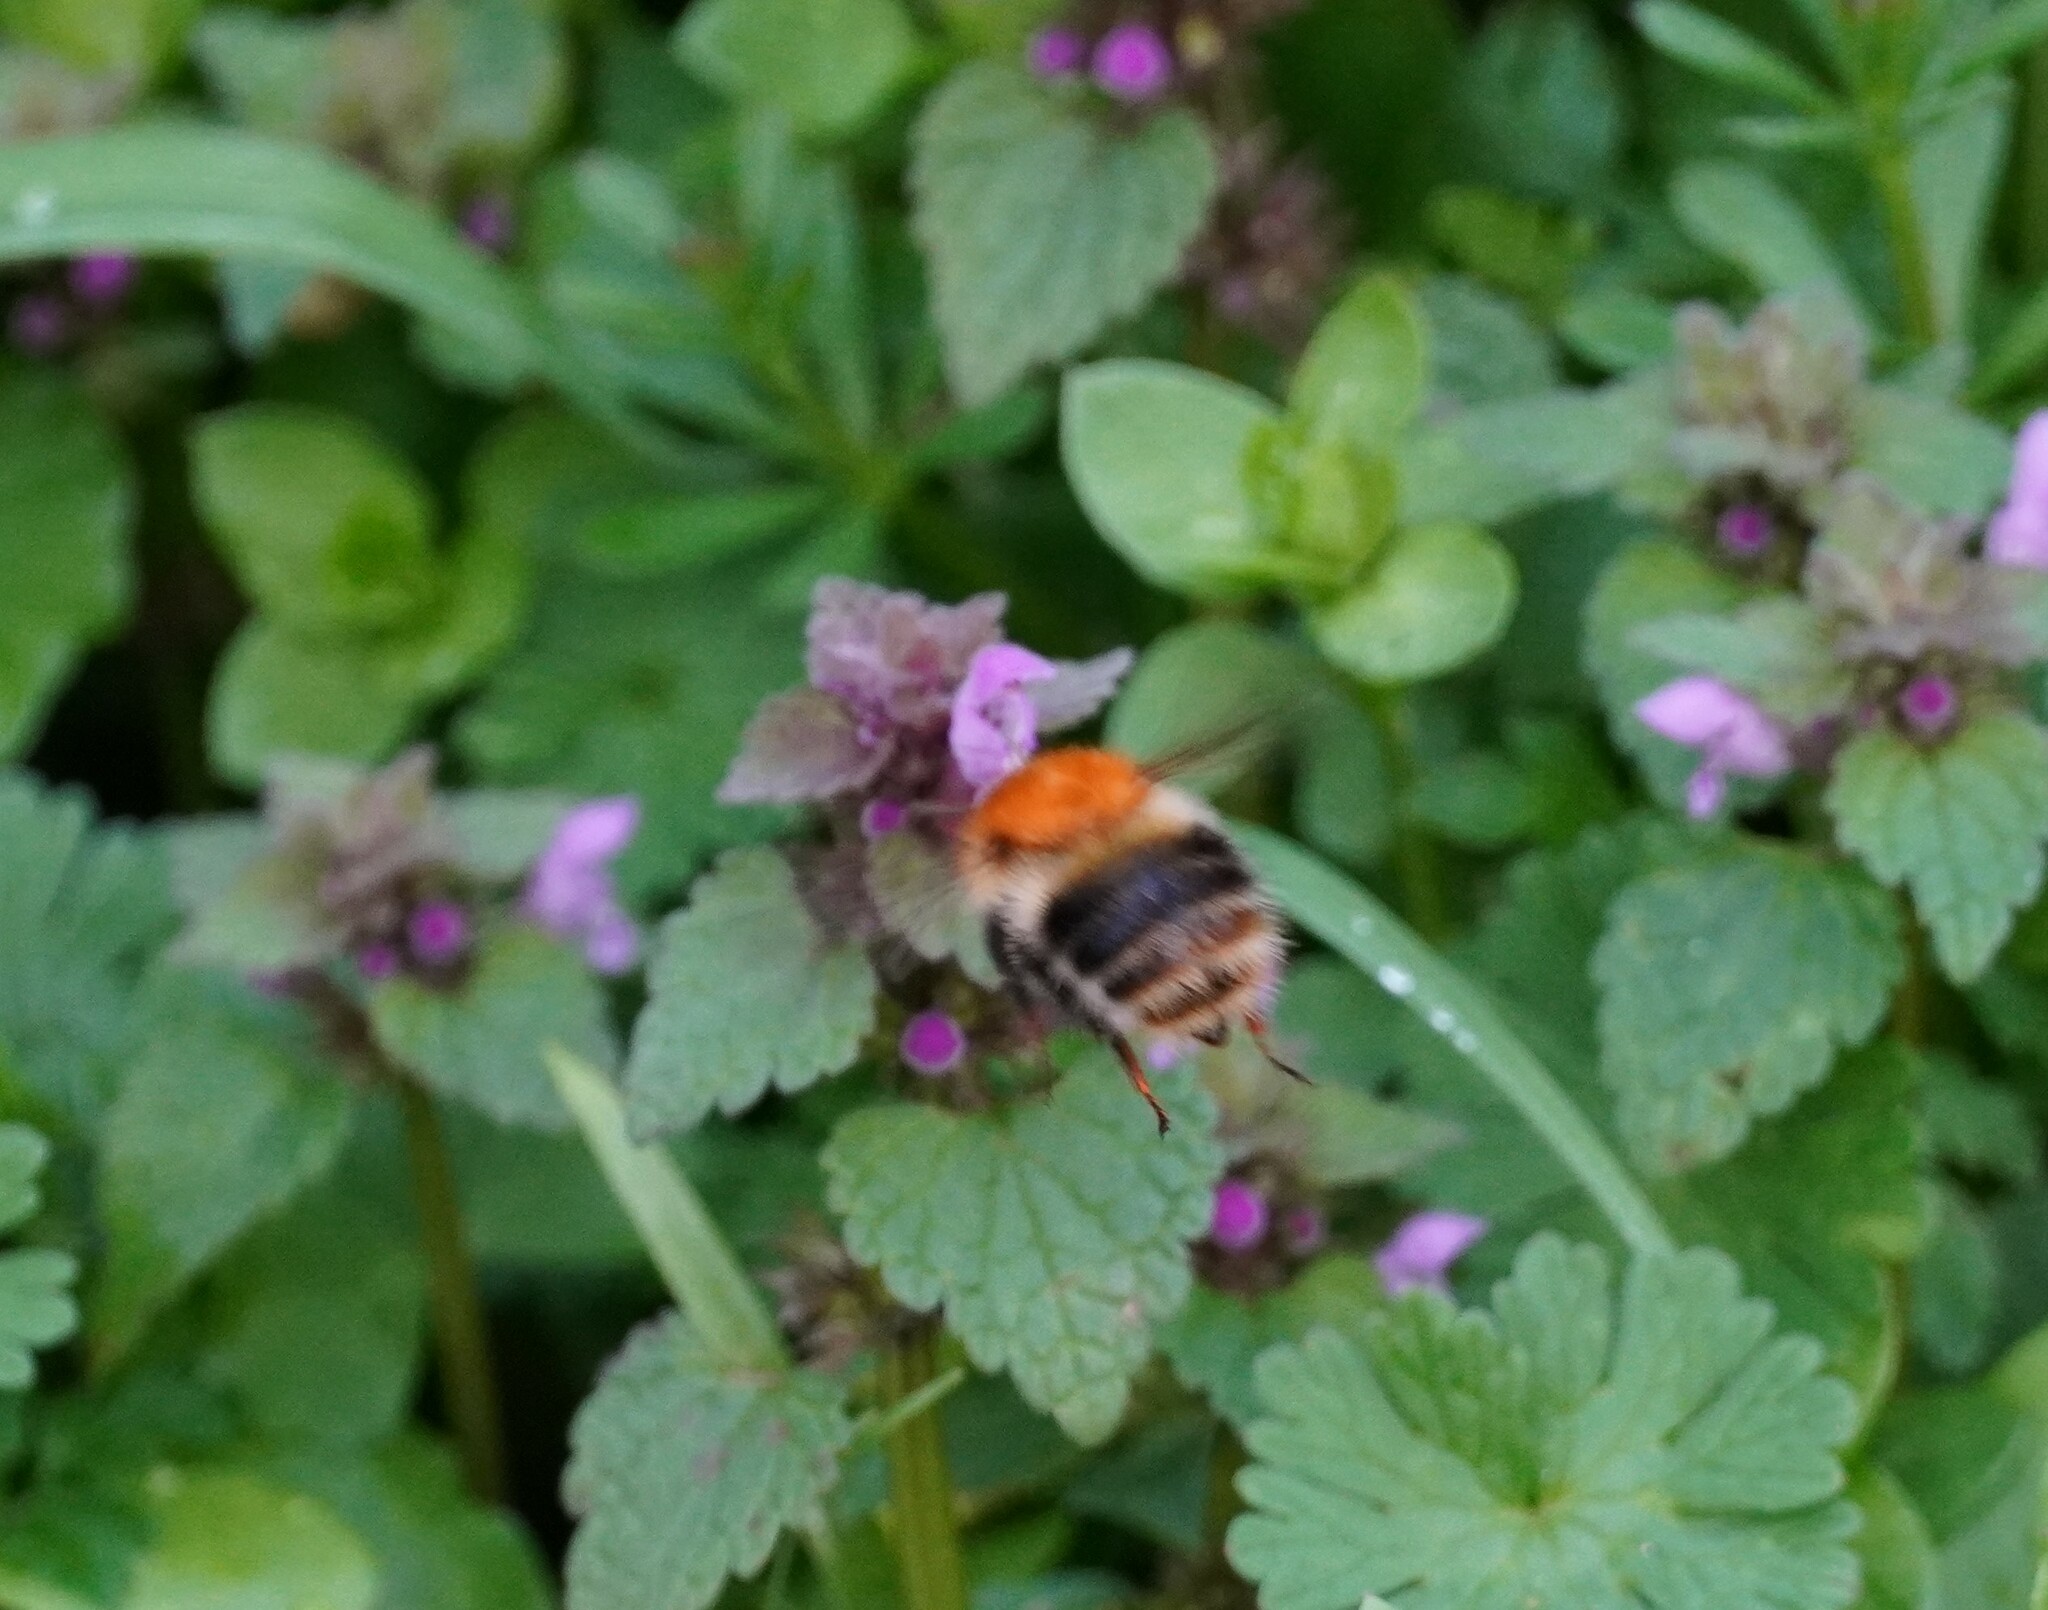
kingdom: Animalia
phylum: Arthropoda
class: Insecta
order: Hymenoptera
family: Apidae
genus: Bombus
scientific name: Bombus pascuorum
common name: Common carder bee
